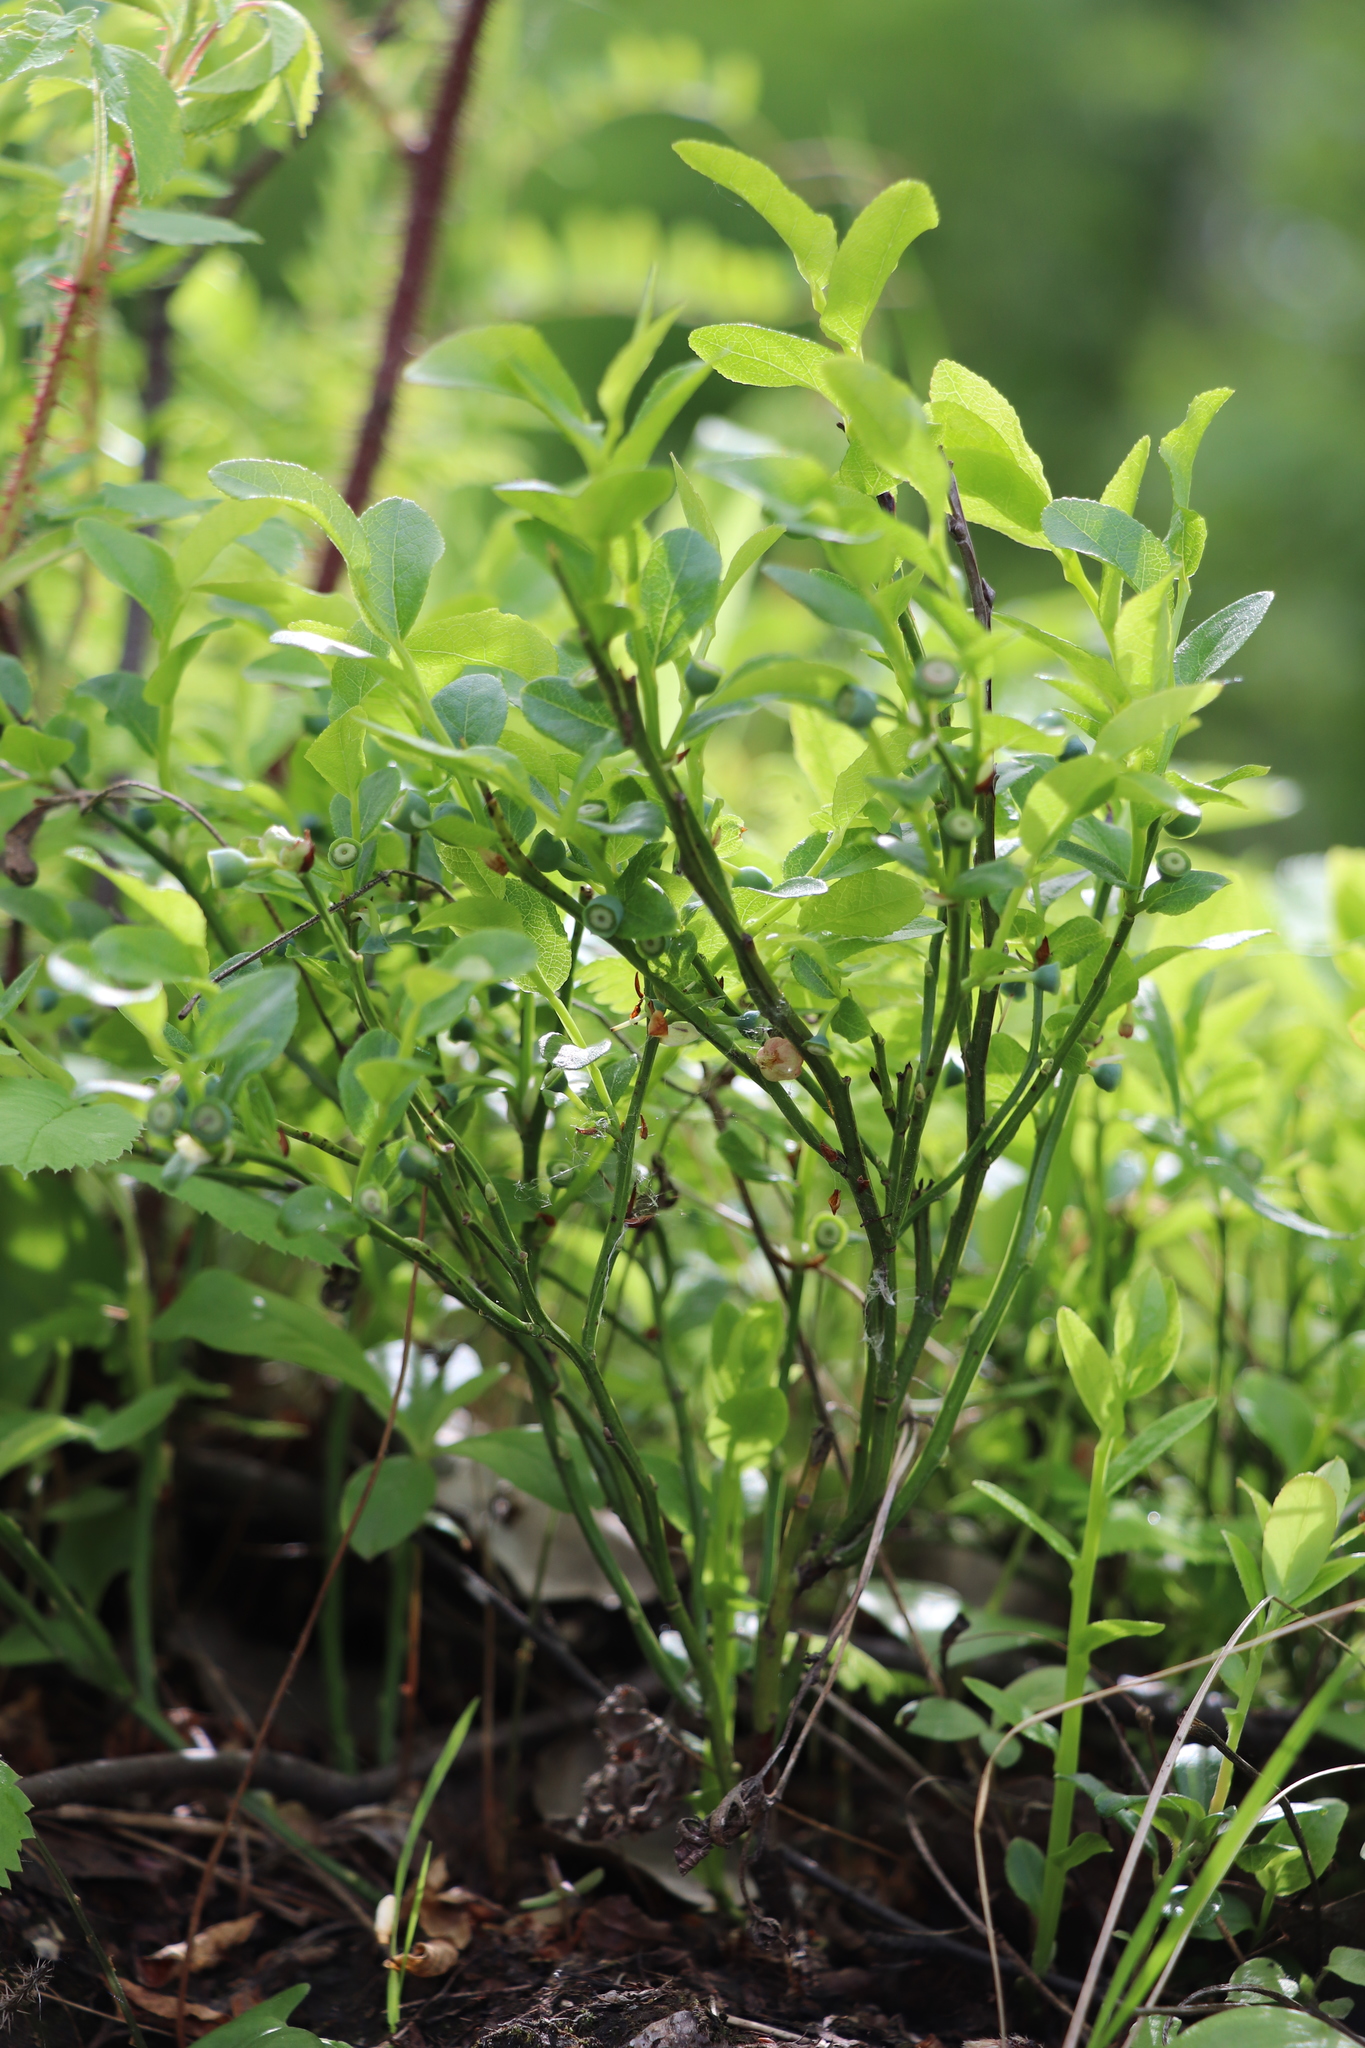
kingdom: Plantae
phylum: Tracheophyta
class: Magnoliopsida
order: Ericales
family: Ericaceae
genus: Vaccinium
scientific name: Vaccinium myrtillus
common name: Bilberry
